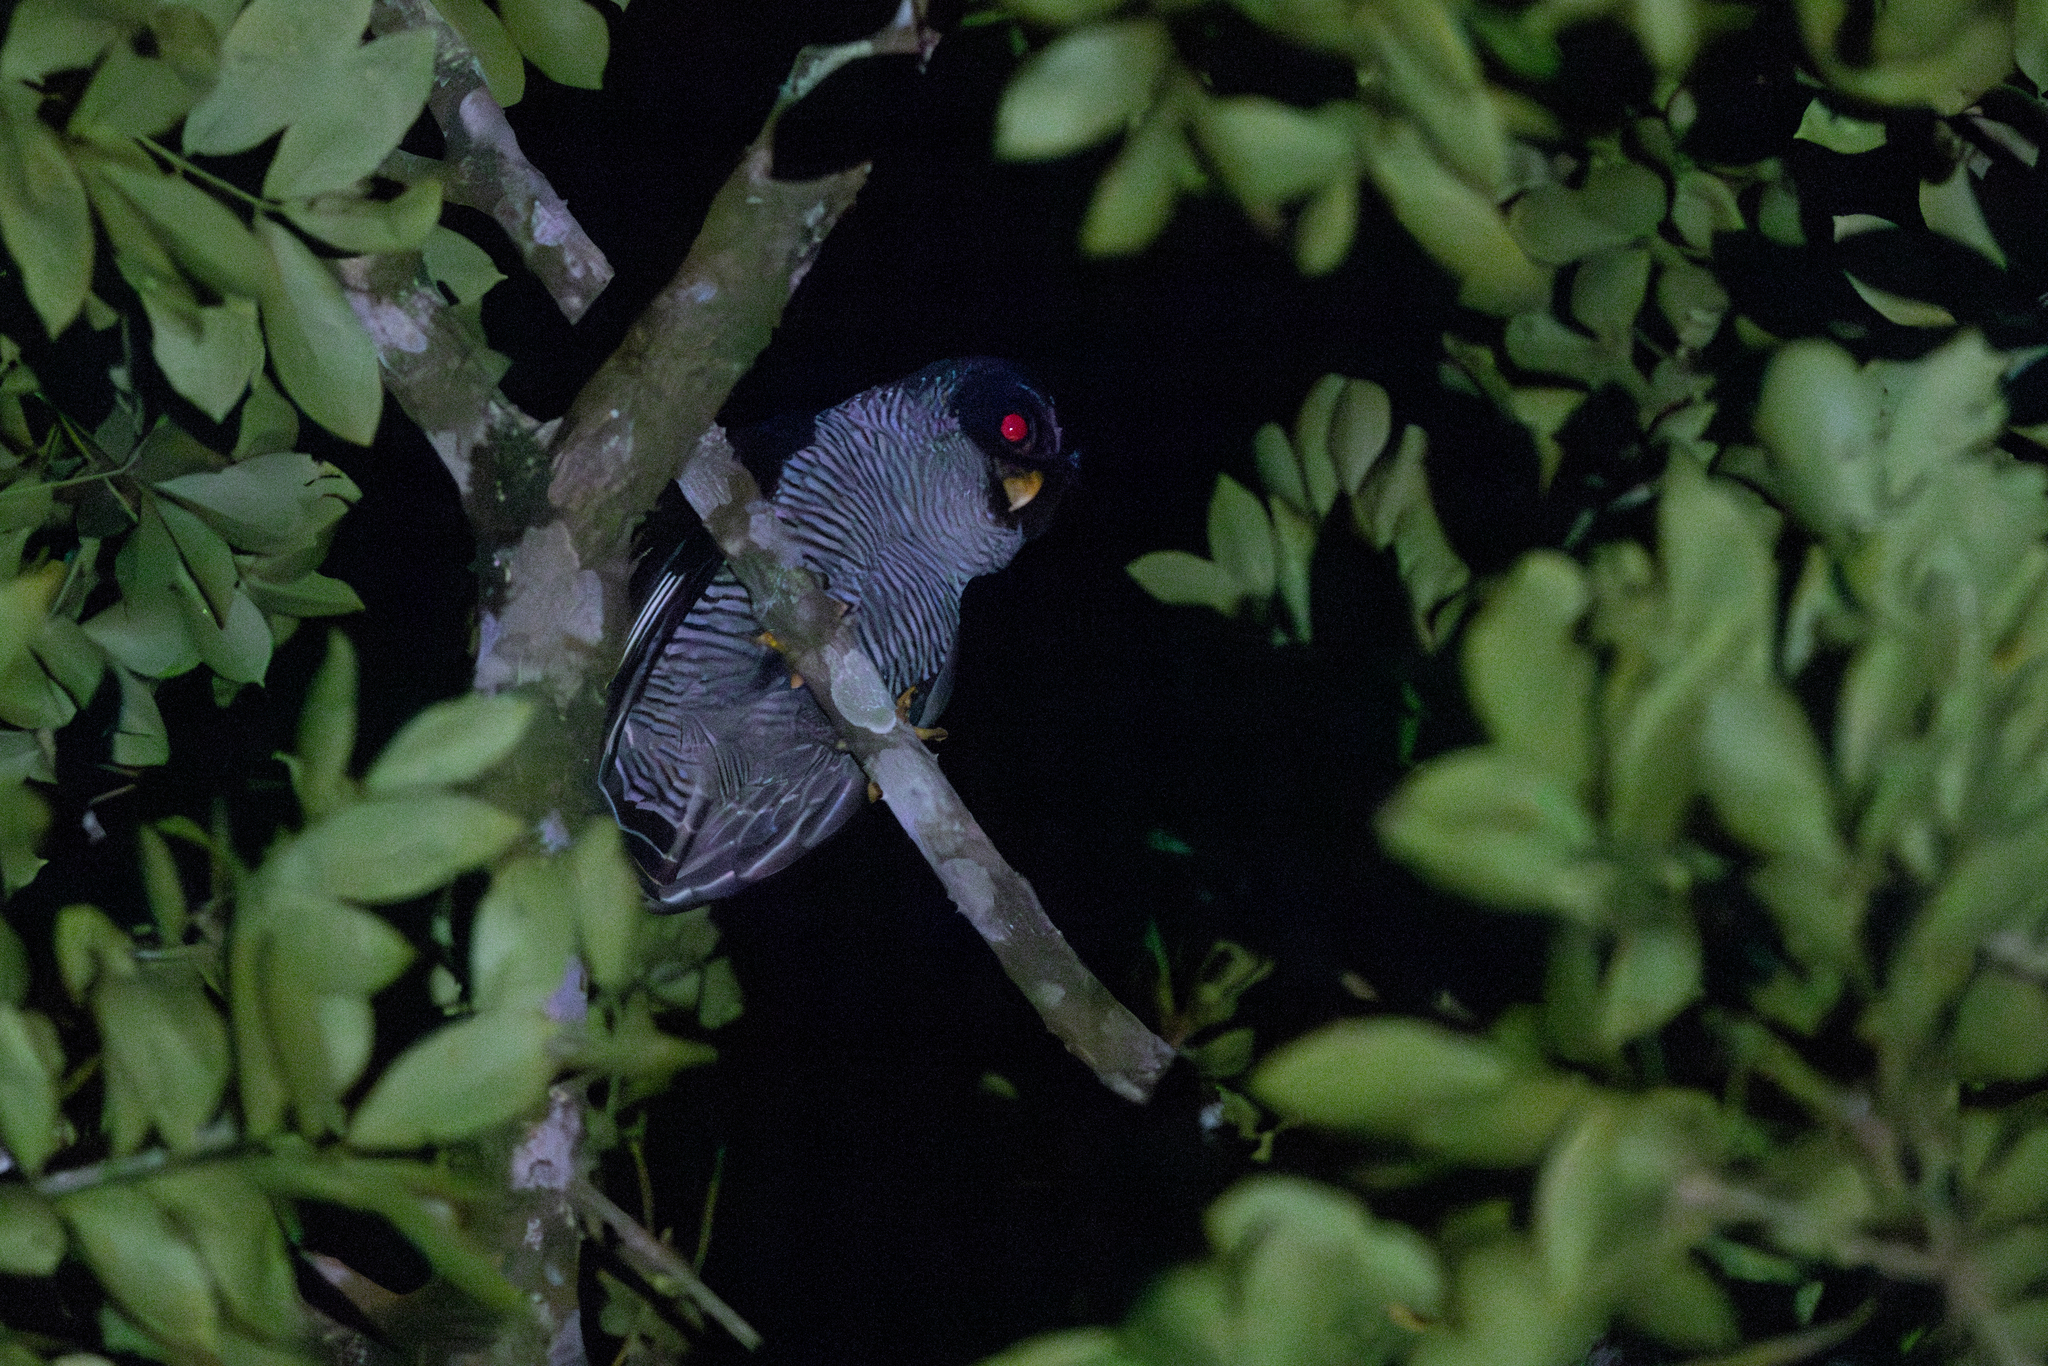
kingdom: Animalia
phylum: Chordata
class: Aves
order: Strigiformes
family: Strigidae
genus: Strix
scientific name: Strix nigrolineata
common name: Black-and-white owl
